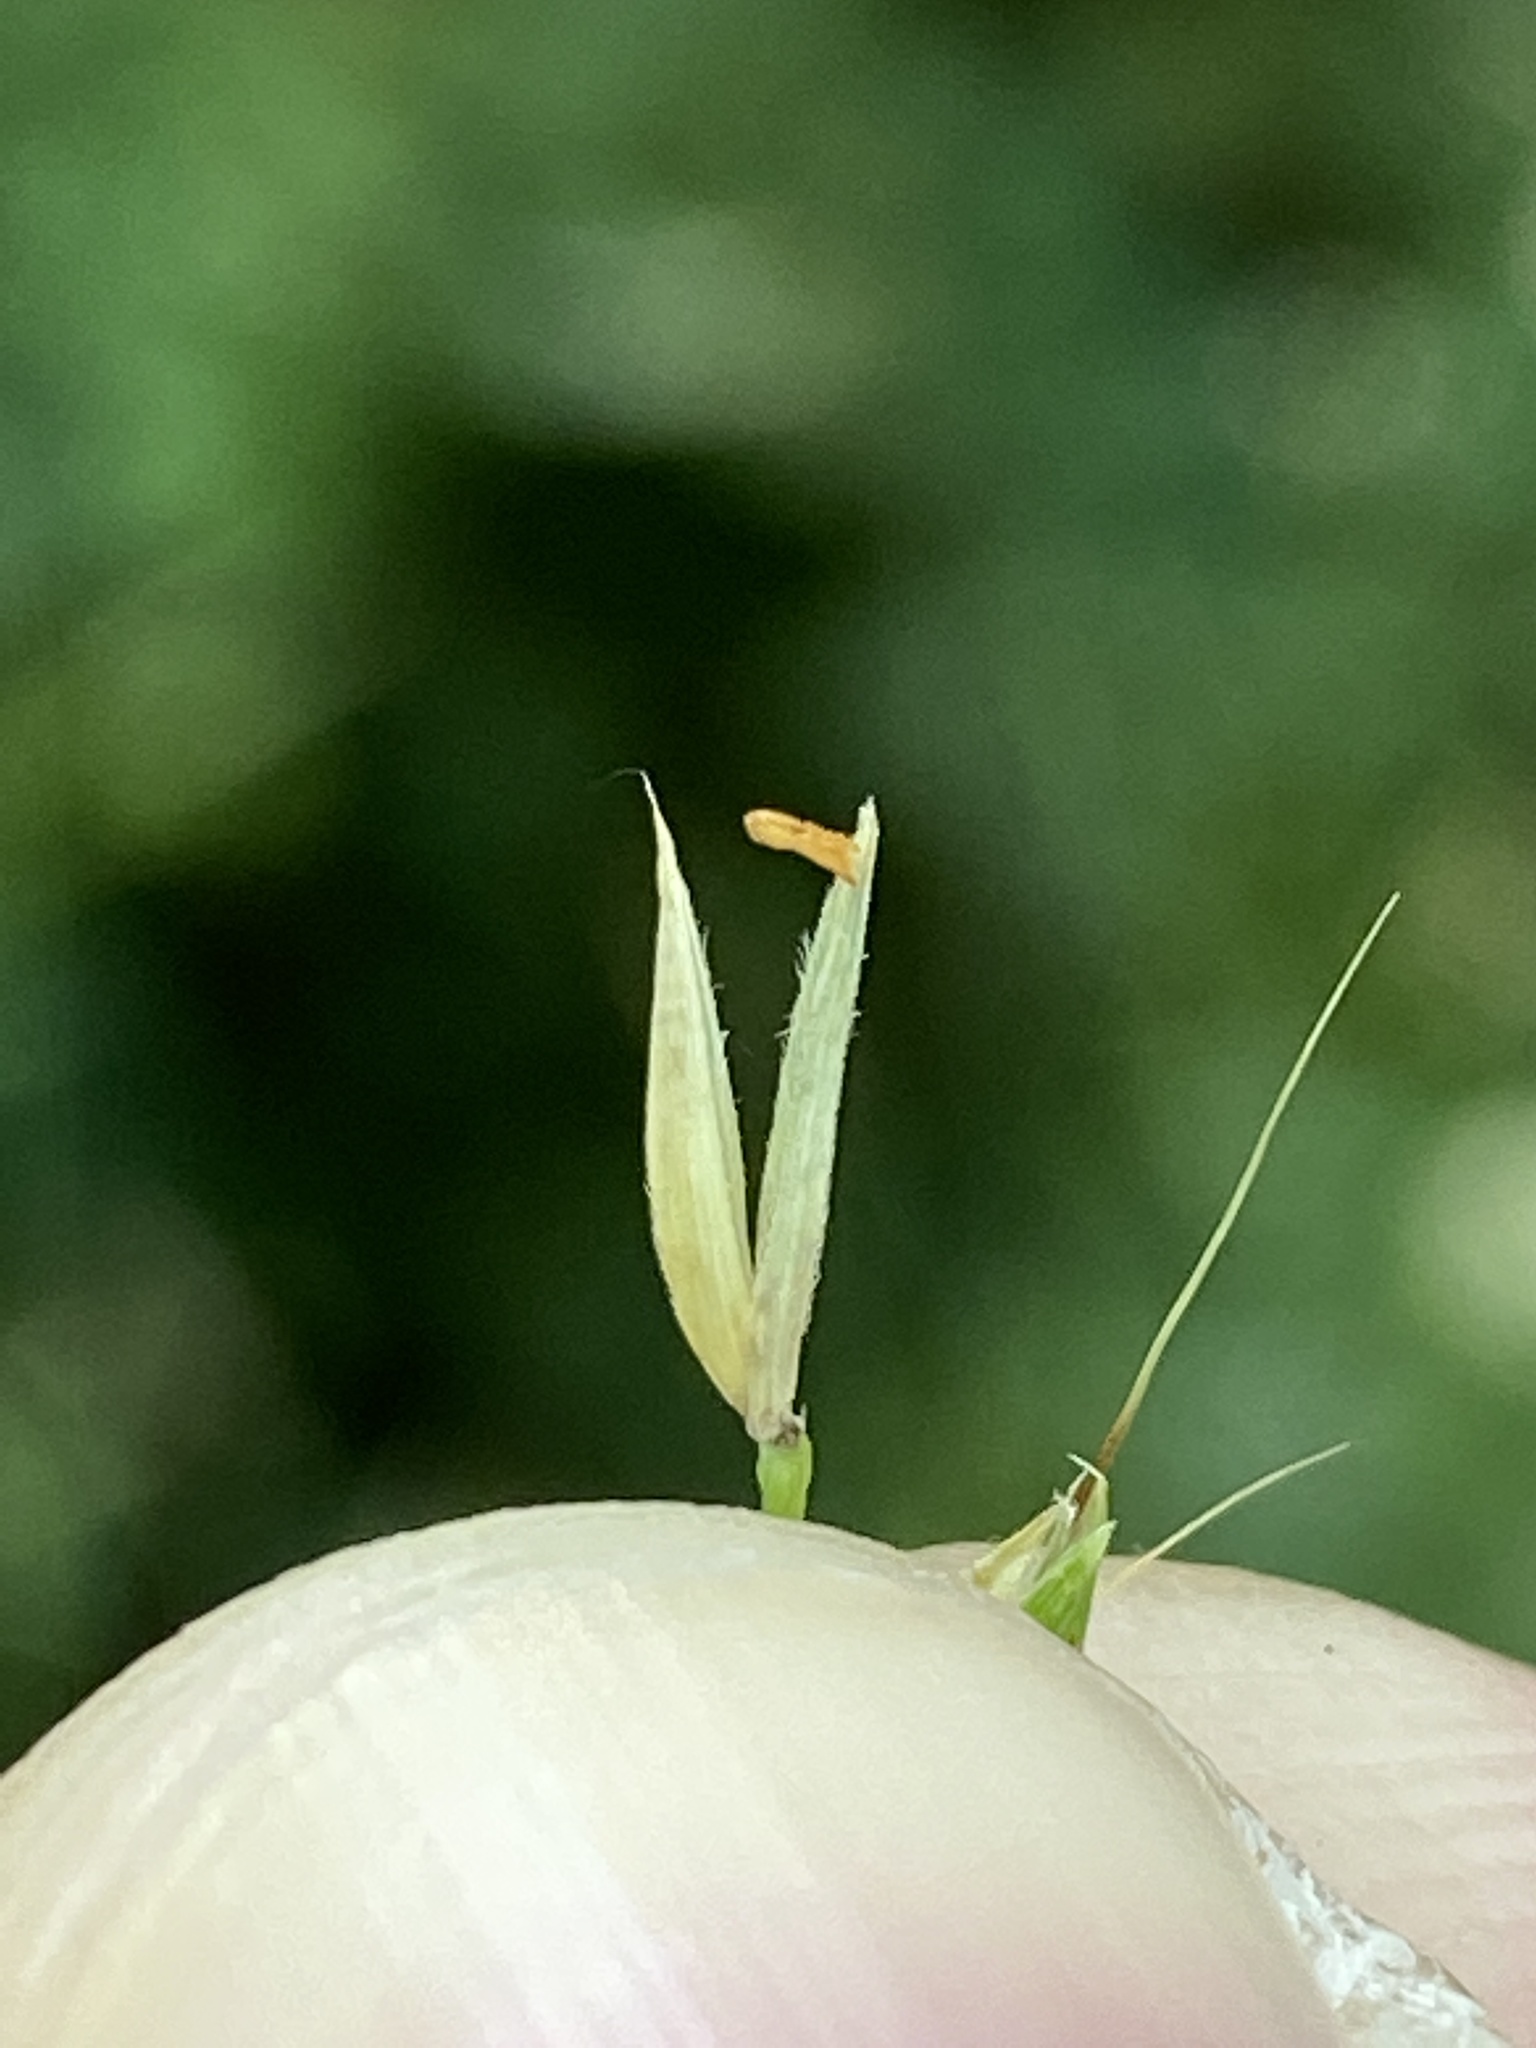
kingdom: Plantae
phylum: Tracheophyta
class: Liliopsida
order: Poales
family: Poaceae
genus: Microstegium
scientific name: Microstegium vimineum
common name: Japanese stiltgrass
